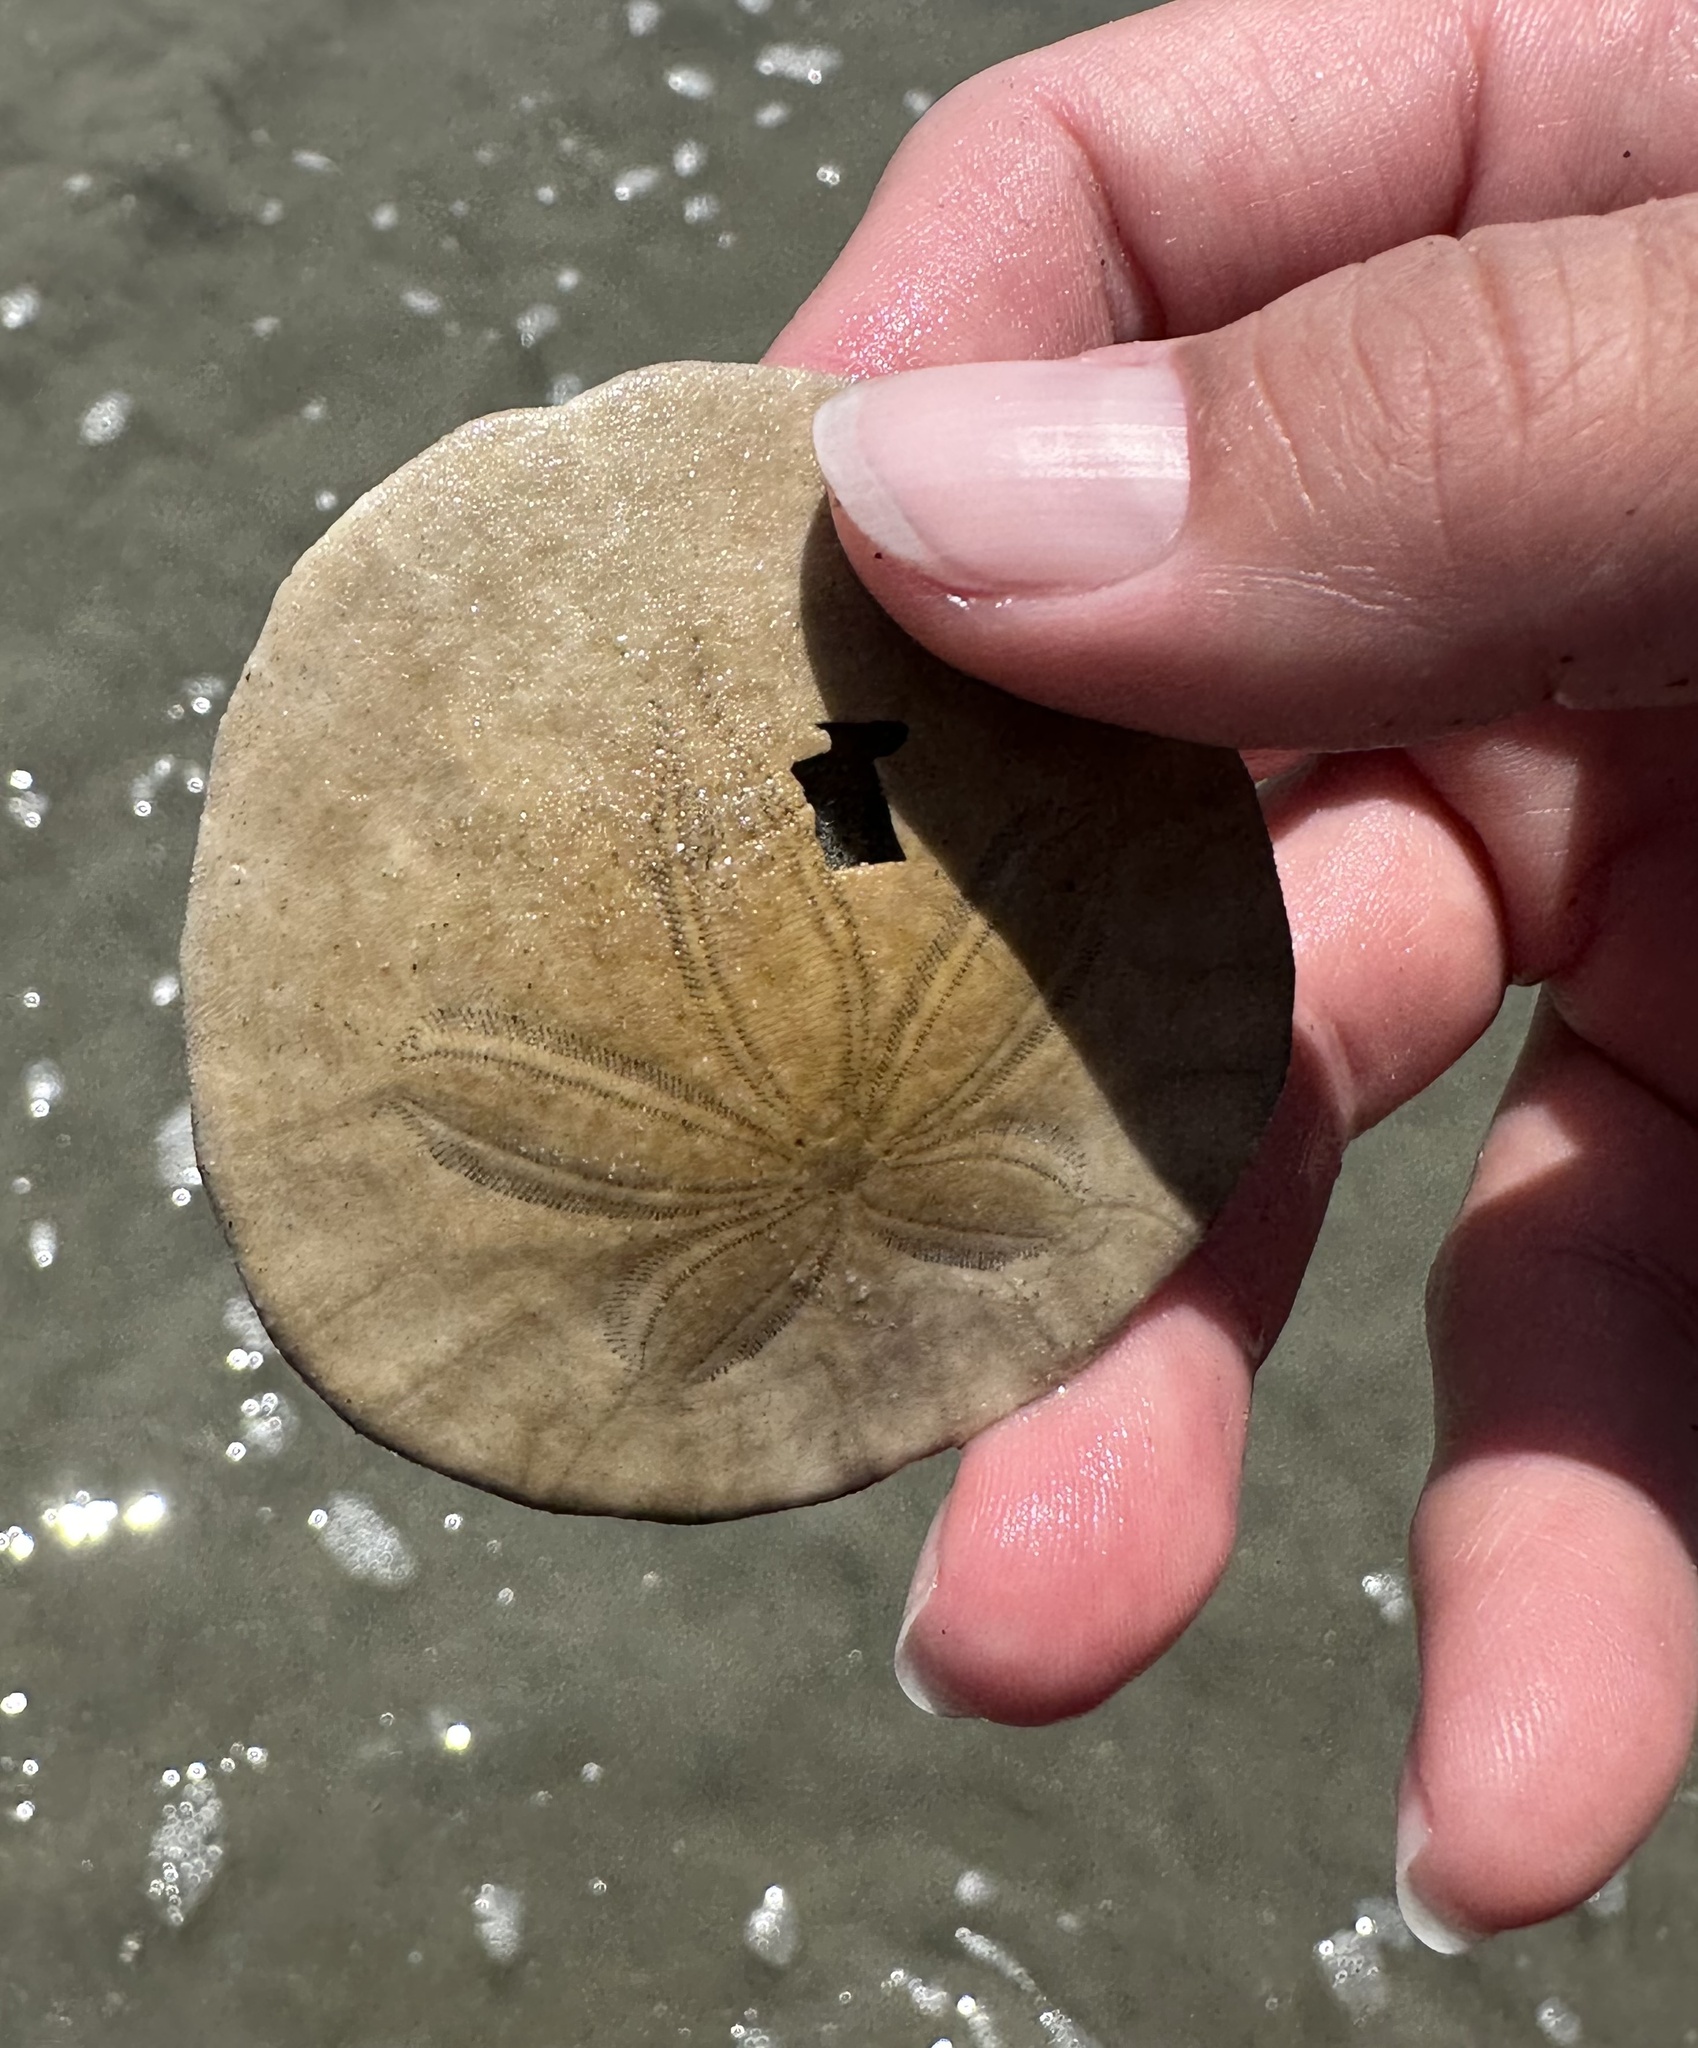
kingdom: Animalia
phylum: Echinodermata
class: Echinoidea
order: Echinolampadacea
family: Dendrasteridae
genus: Dendraster
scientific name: Dendraster excentricus
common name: Eccentric sand dollar sea urchin
